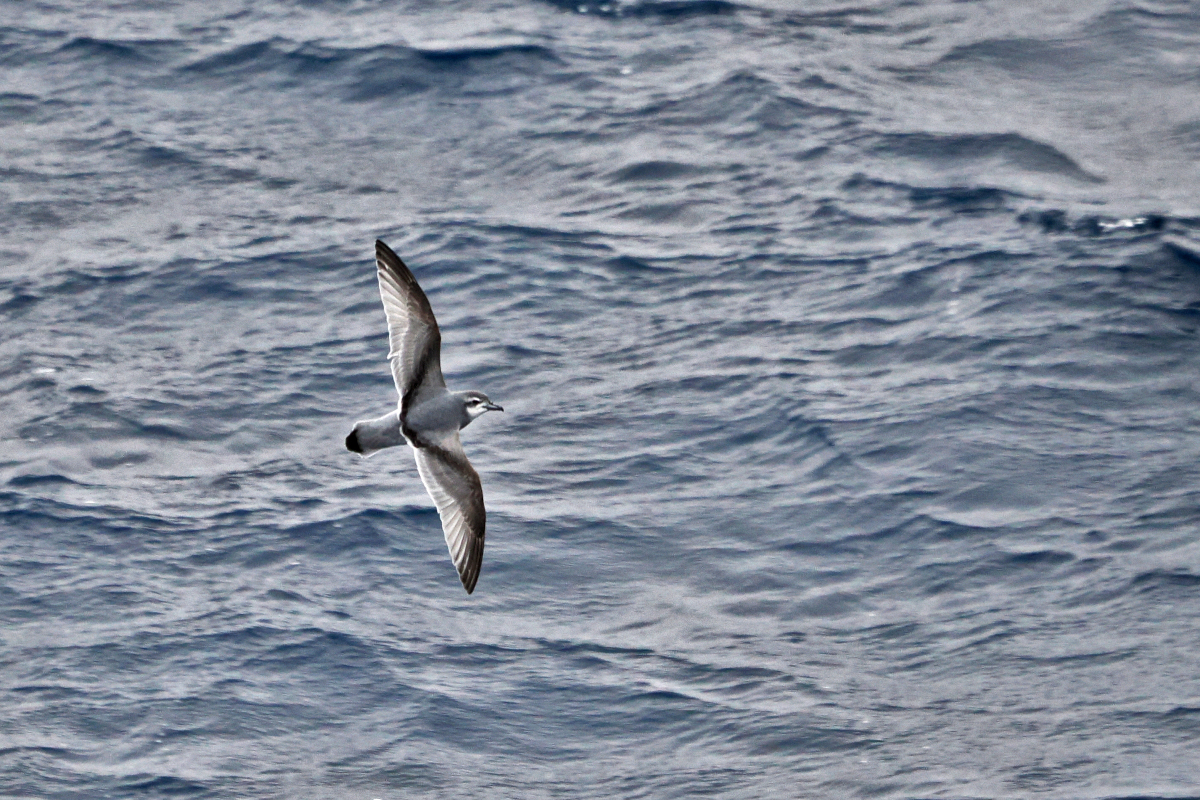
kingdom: Animalia
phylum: Chordata
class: Aves
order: Procellariiformes
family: Procellariidae
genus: Pachyptila
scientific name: Pachyptila desolata
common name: Antarctic prion
